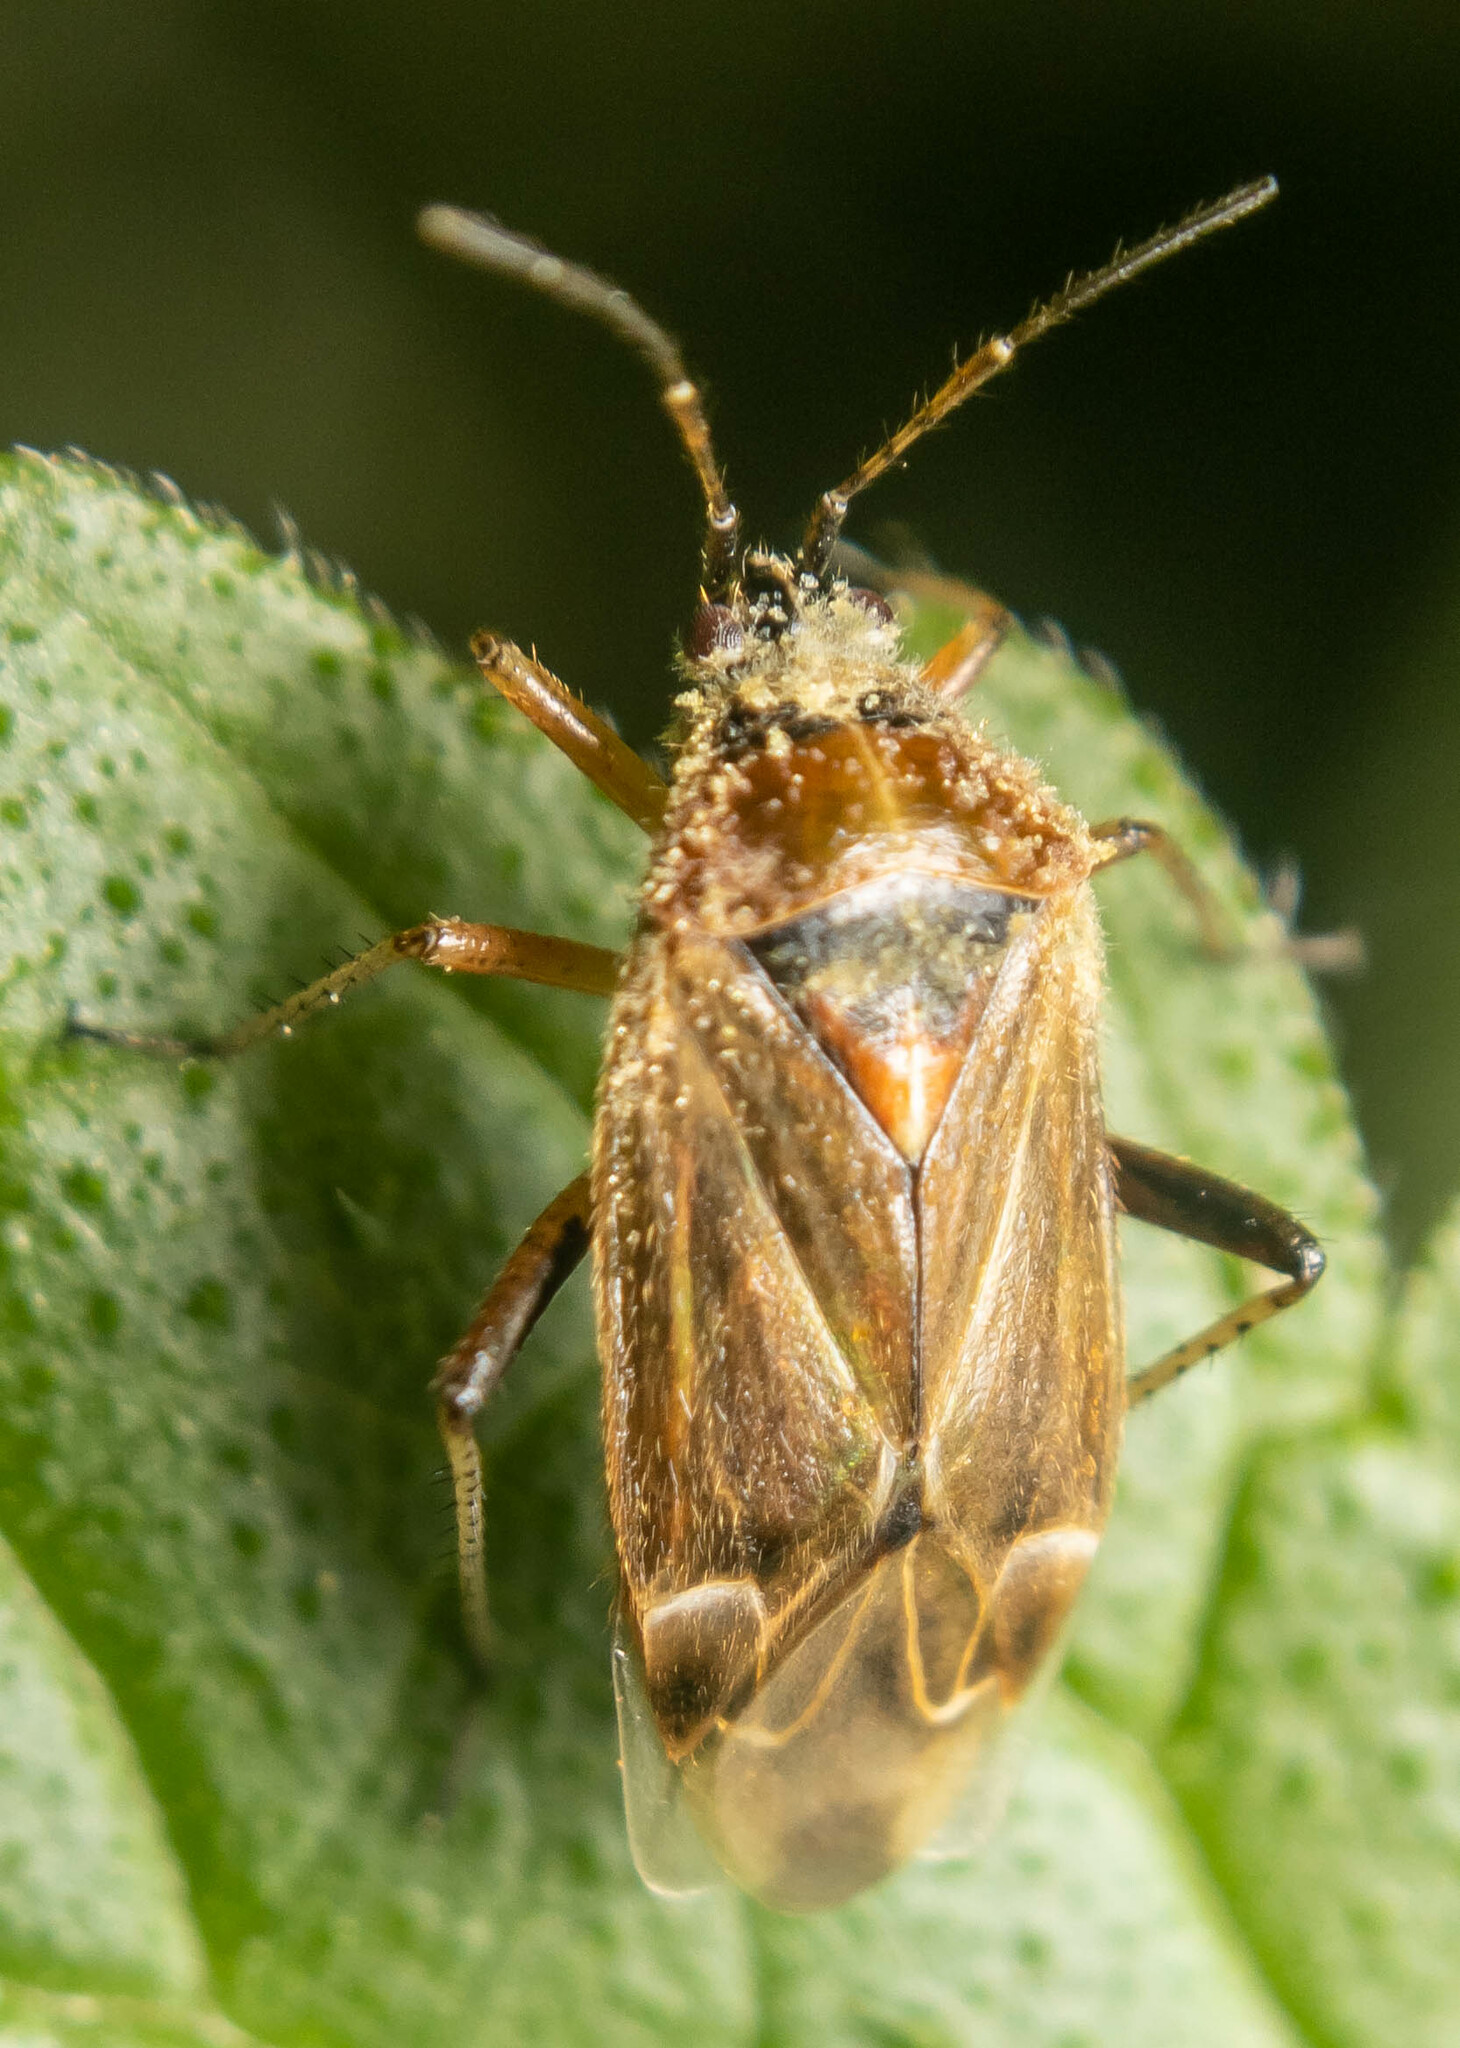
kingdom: Animalia
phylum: Arthropoda
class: Insecta
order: Hemiptera
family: Miridae
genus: Harpocera
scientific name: Harpocera thoracica
